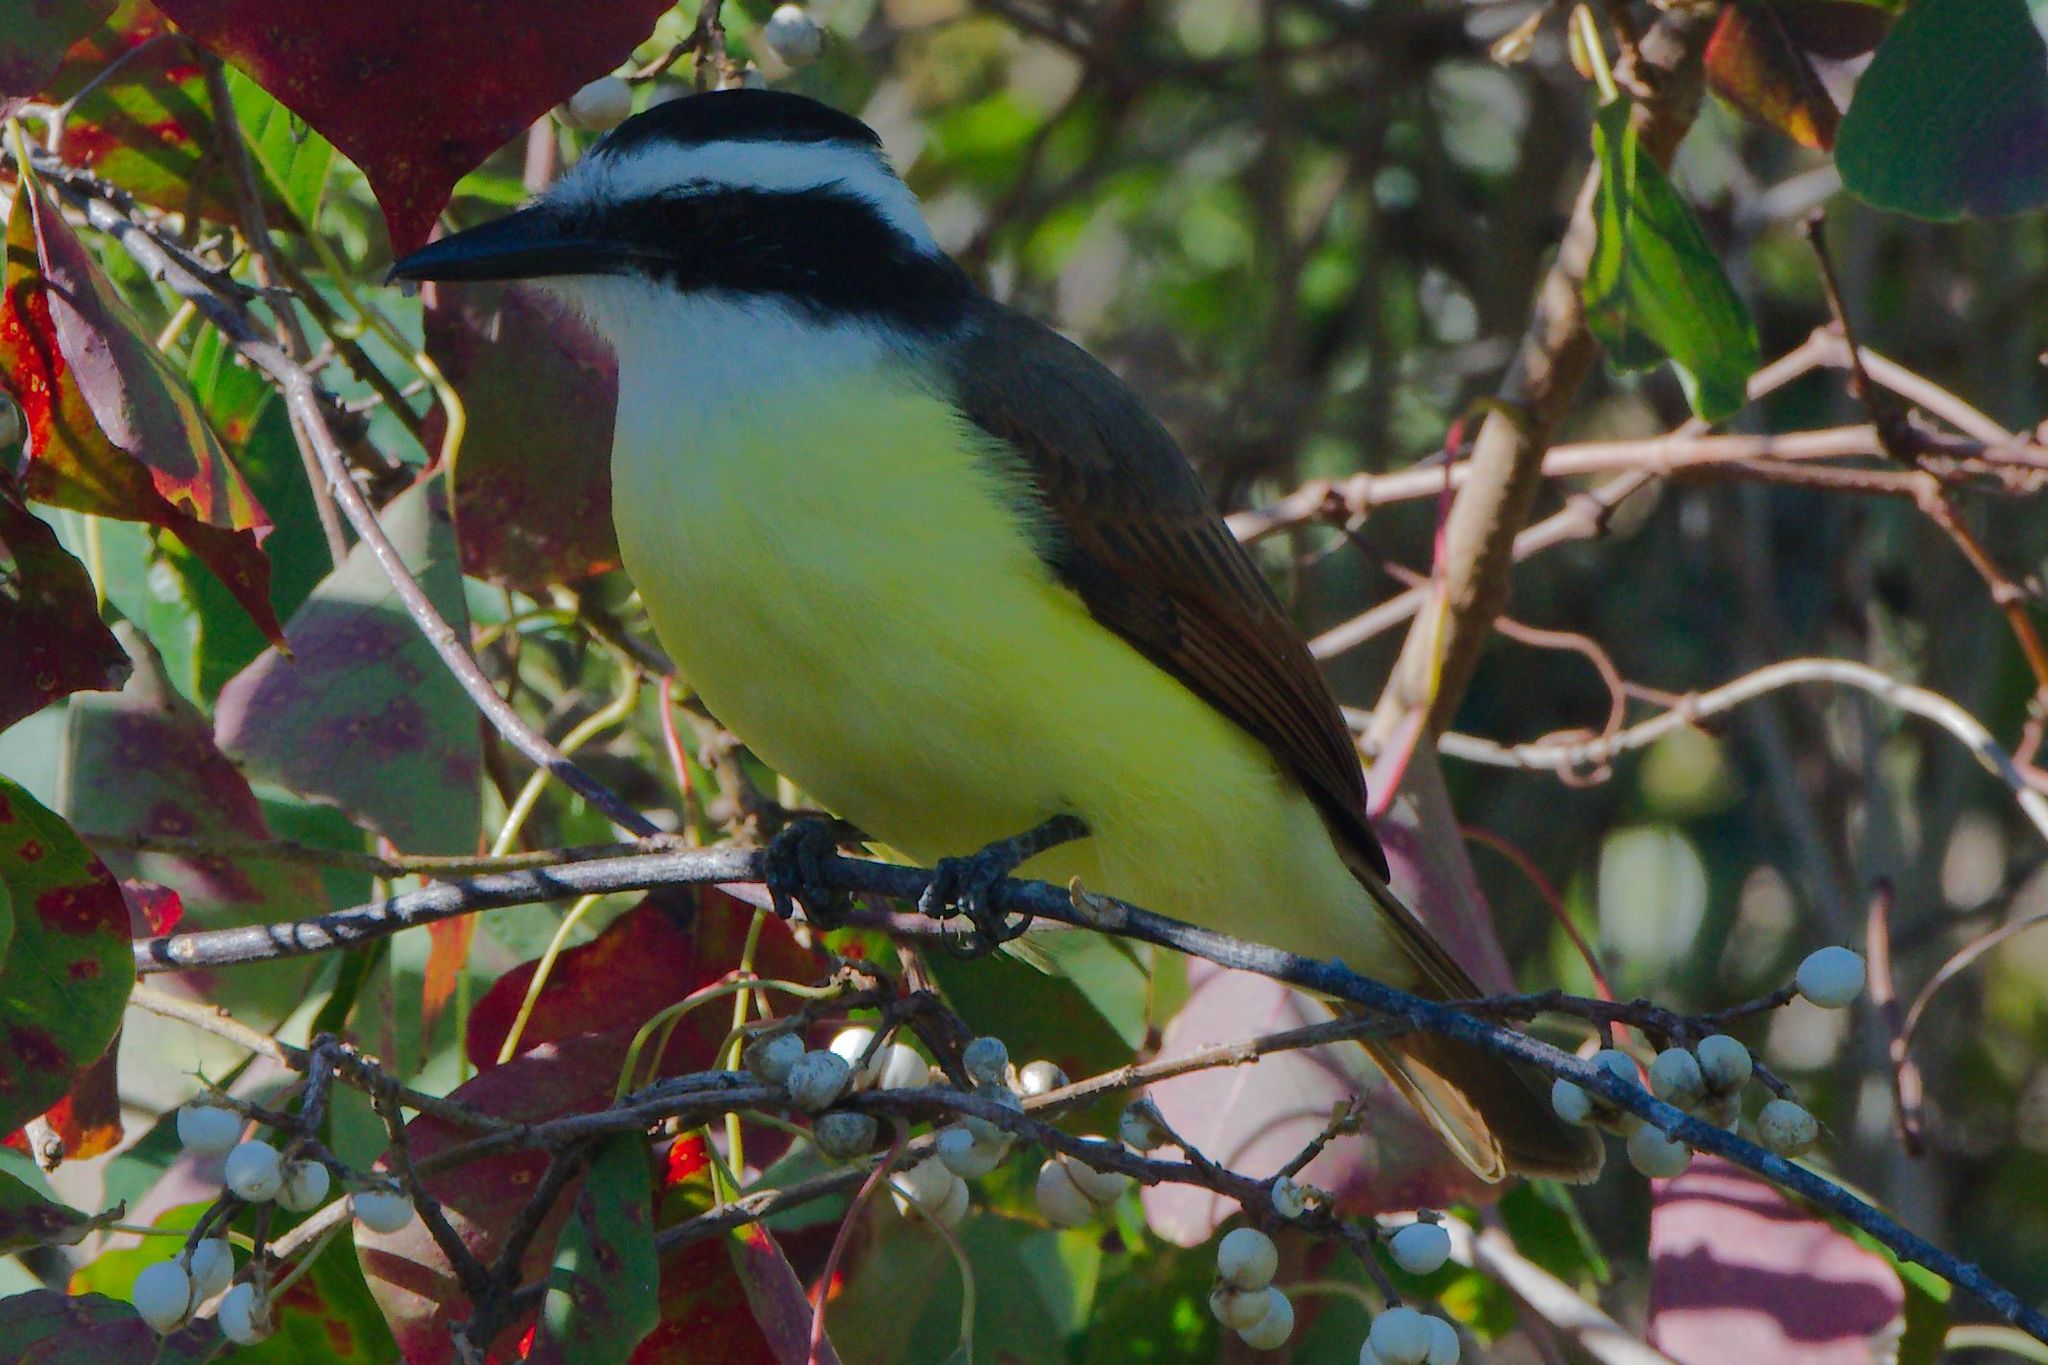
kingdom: Animalia
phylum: Chordata
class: Aves
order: Passeriformes
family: Tyrannidae
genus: Pitangus
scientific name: Pitangus sulphuratus
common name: Great kiskadee
